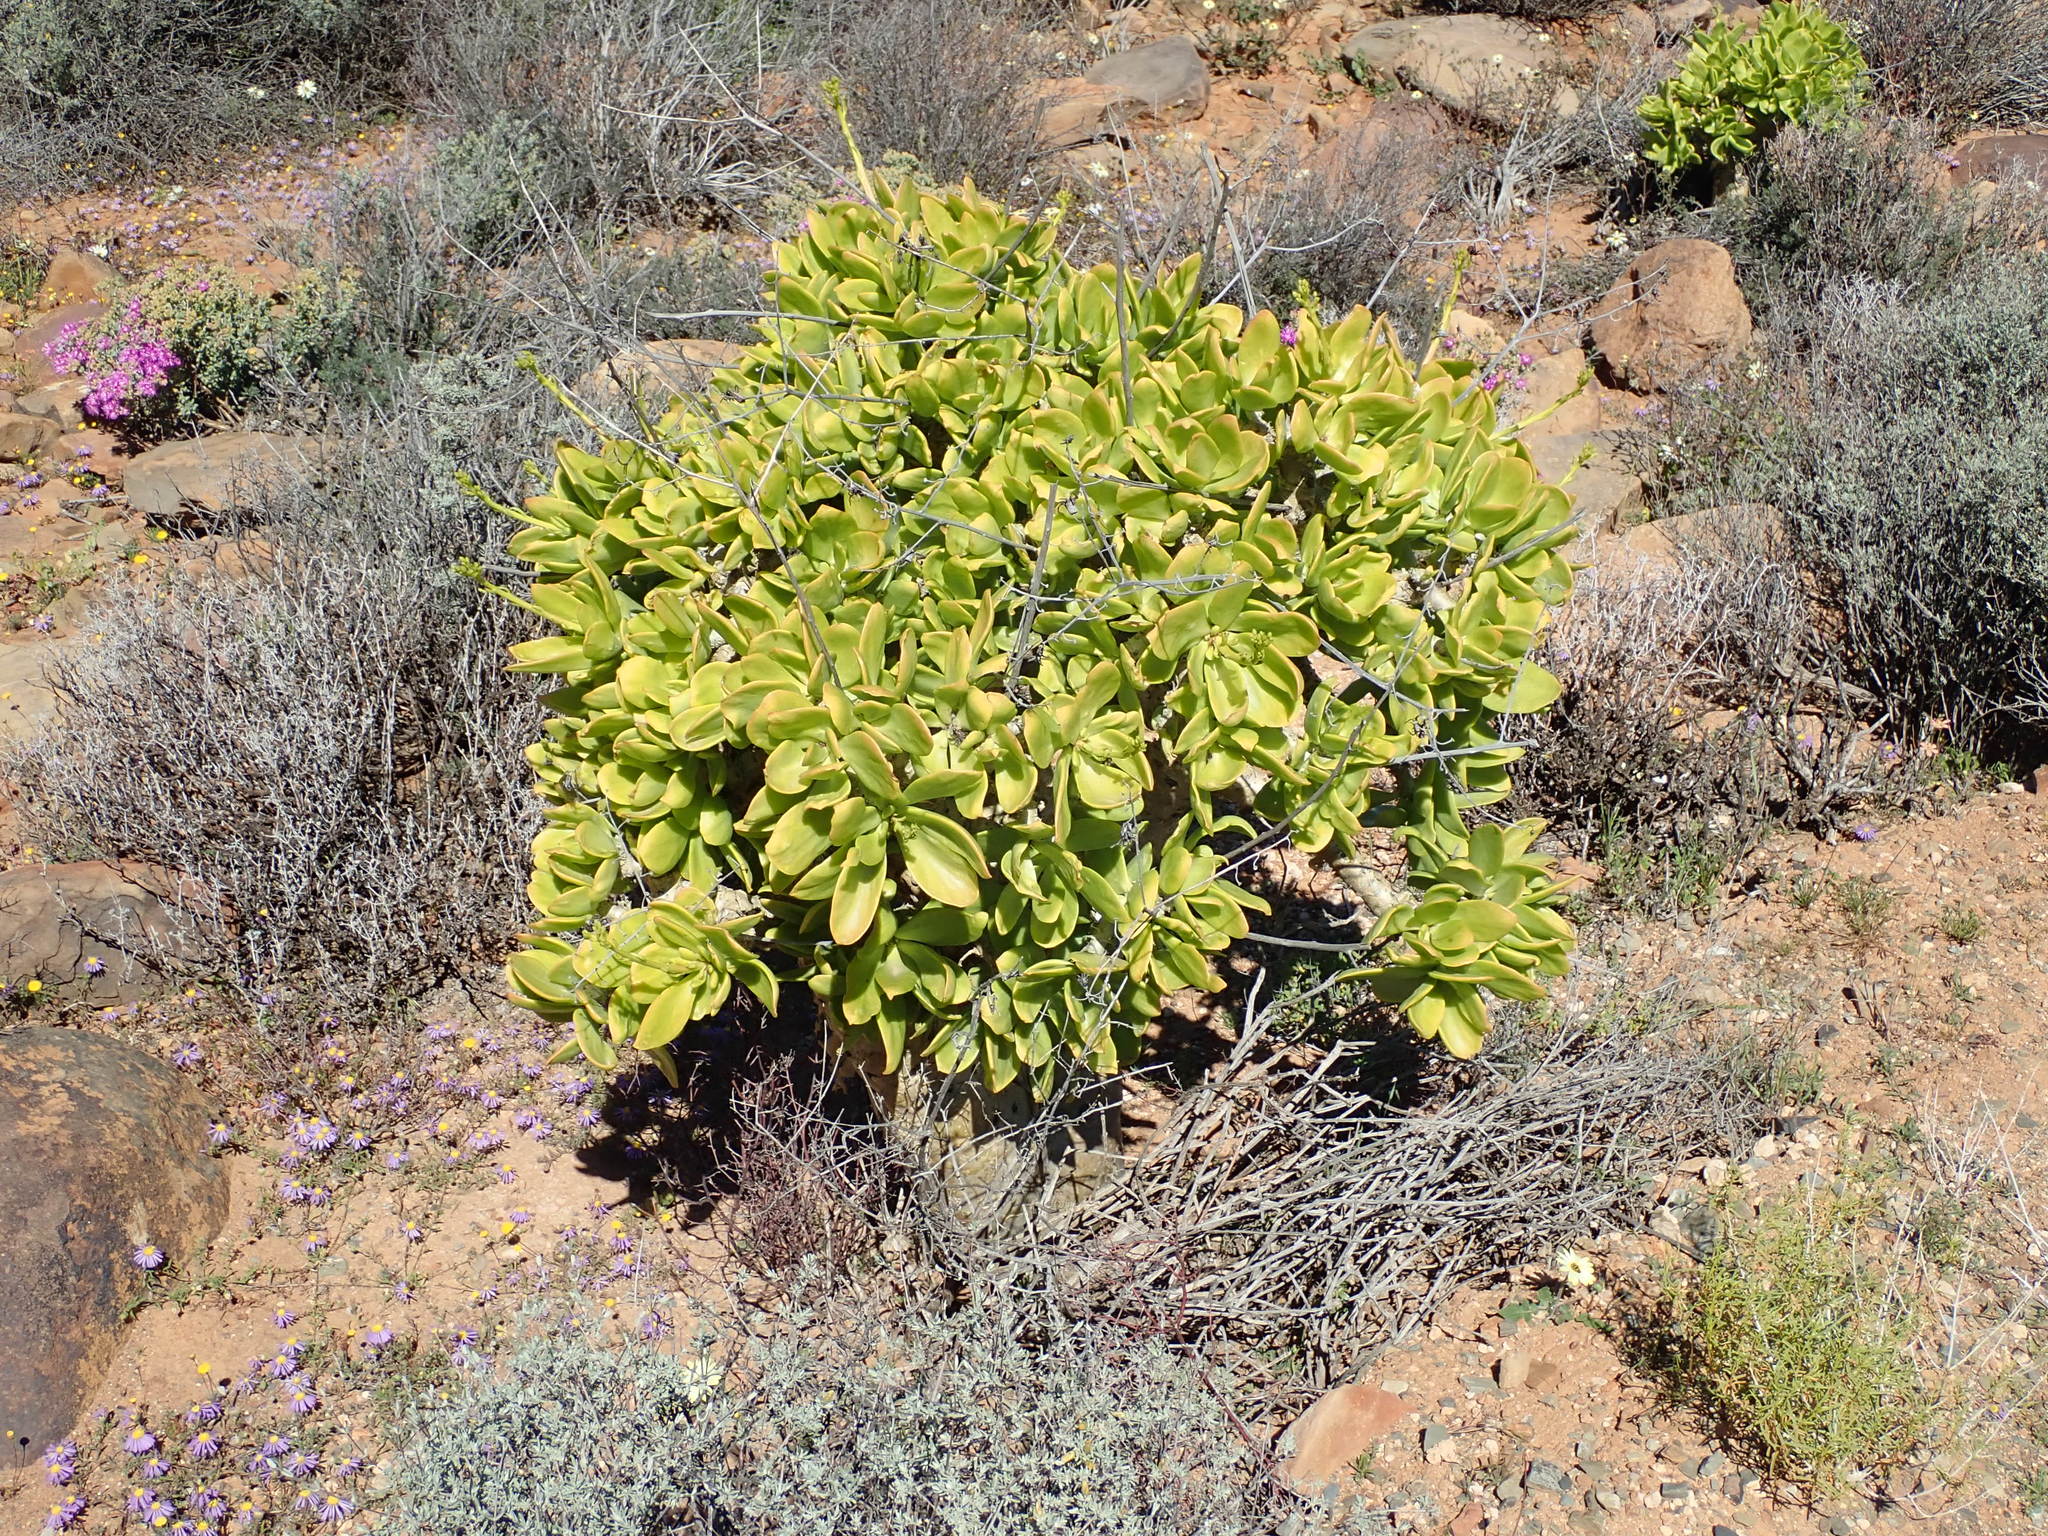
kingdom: Plantae
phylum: Tracheophyta
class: Magnoliopsida
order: Saxifragales
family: Crassulaceae
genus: Tylecodon
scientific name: Tylecodon paniculatus
